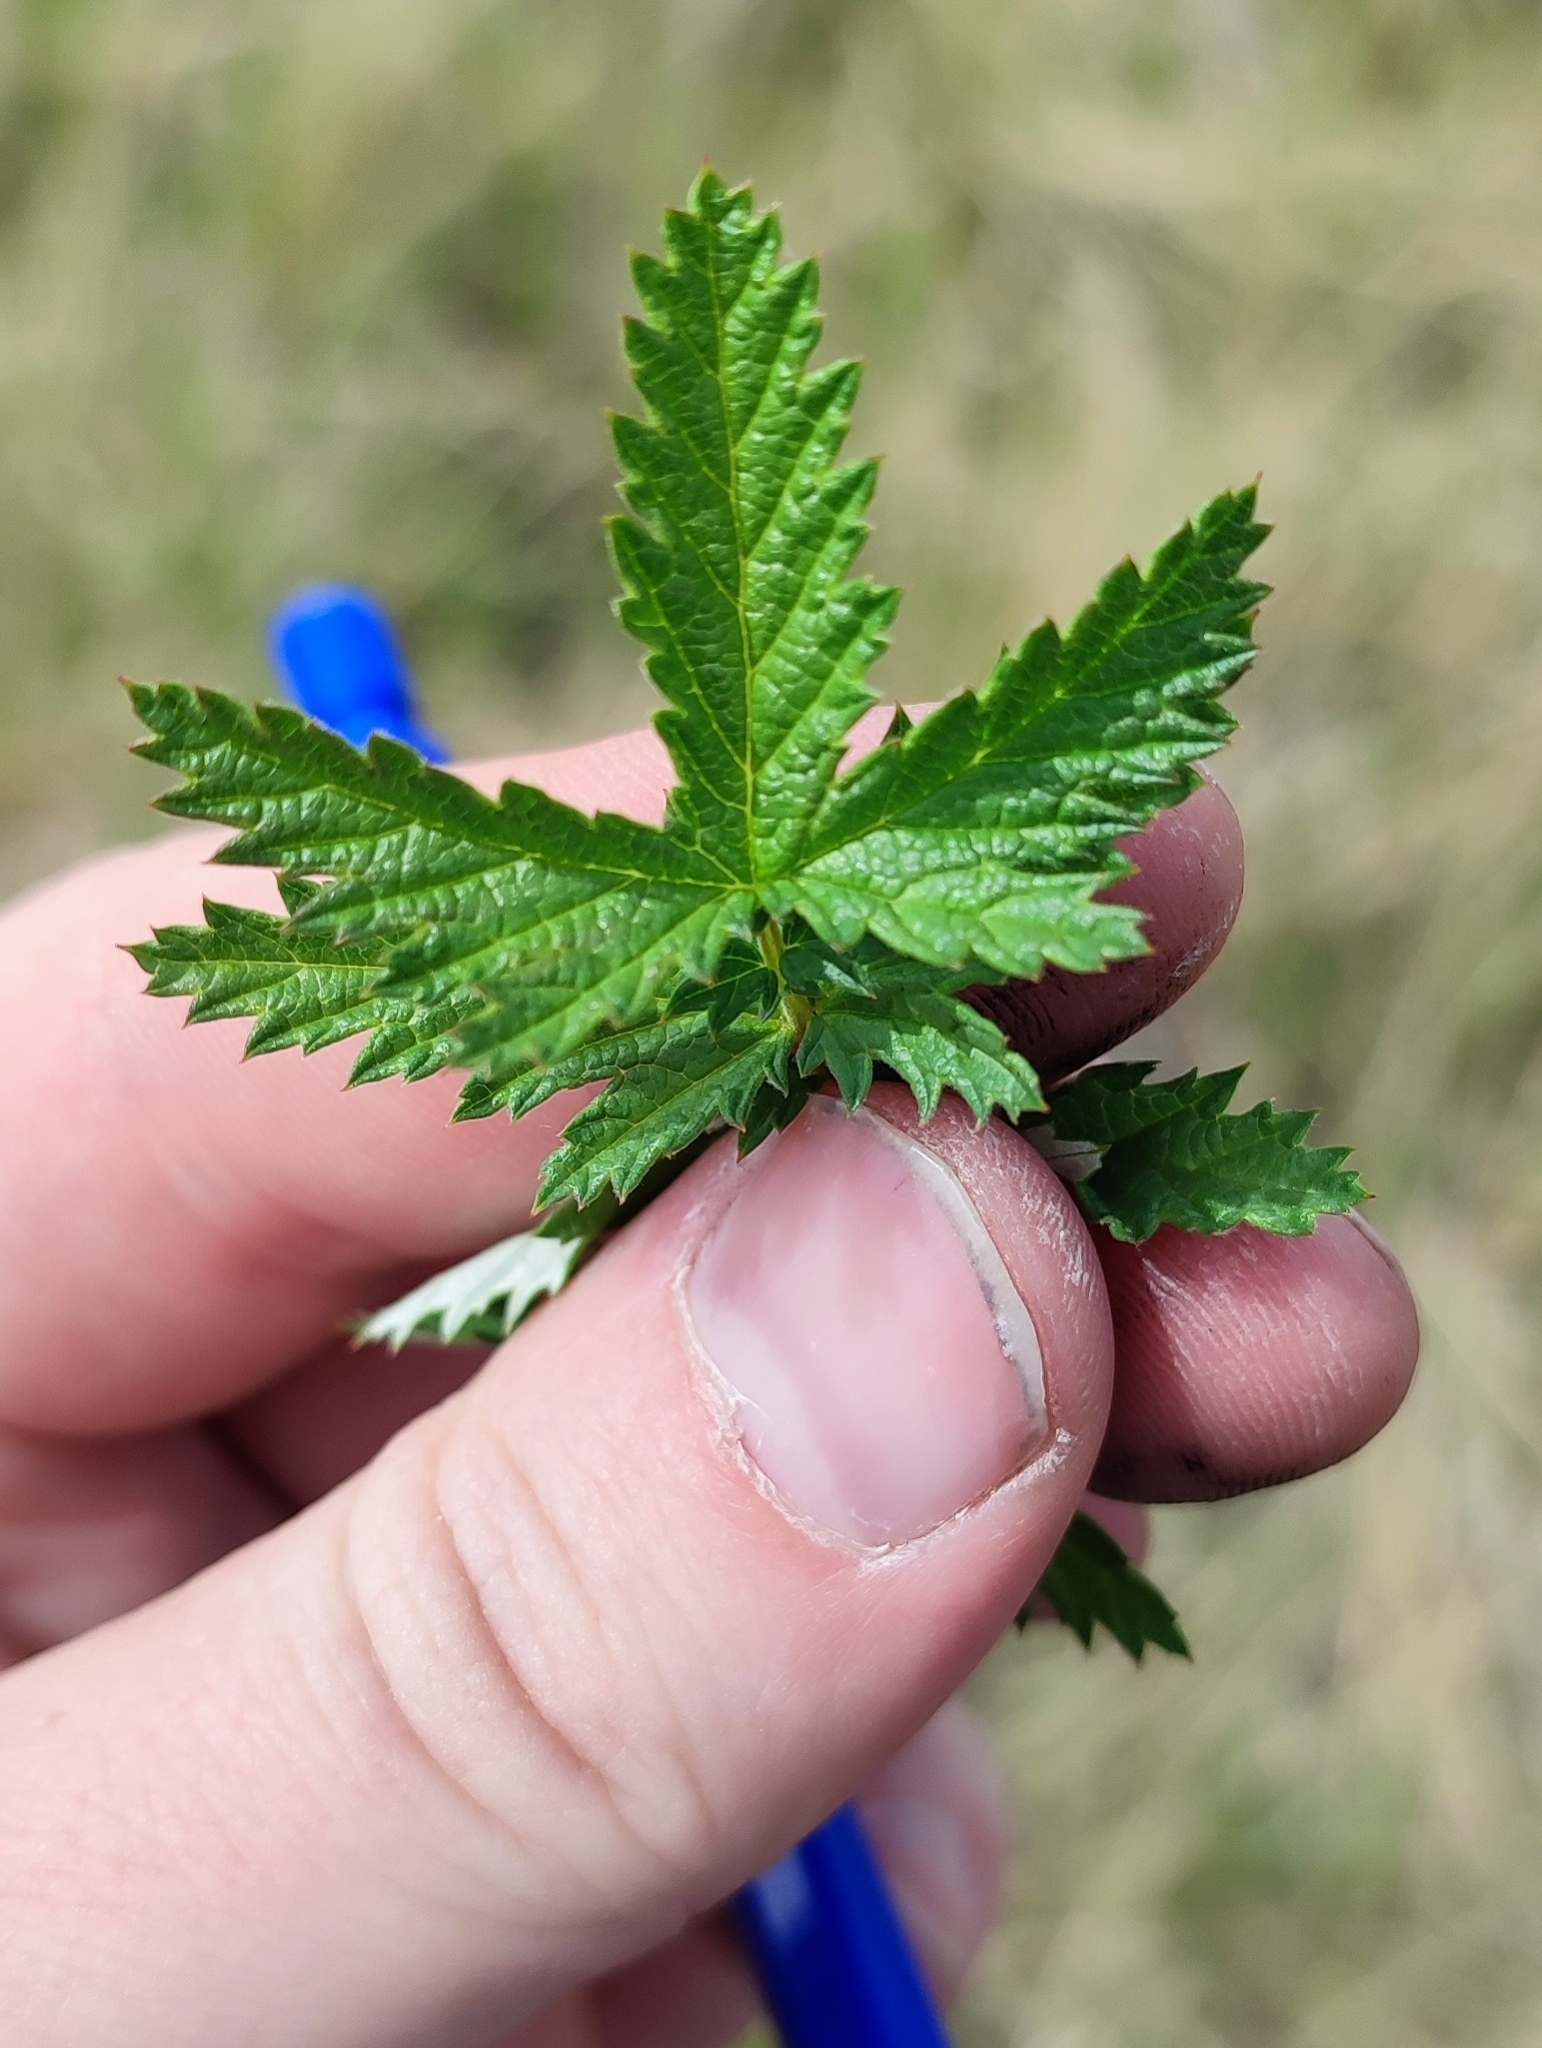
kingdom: Plantae
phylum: Tracheophyta
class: Magnoliopsida
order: Rosales
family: Rosaceae
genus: Filipendula
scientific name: Filipendula ulmaria
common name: Meadowsweet
